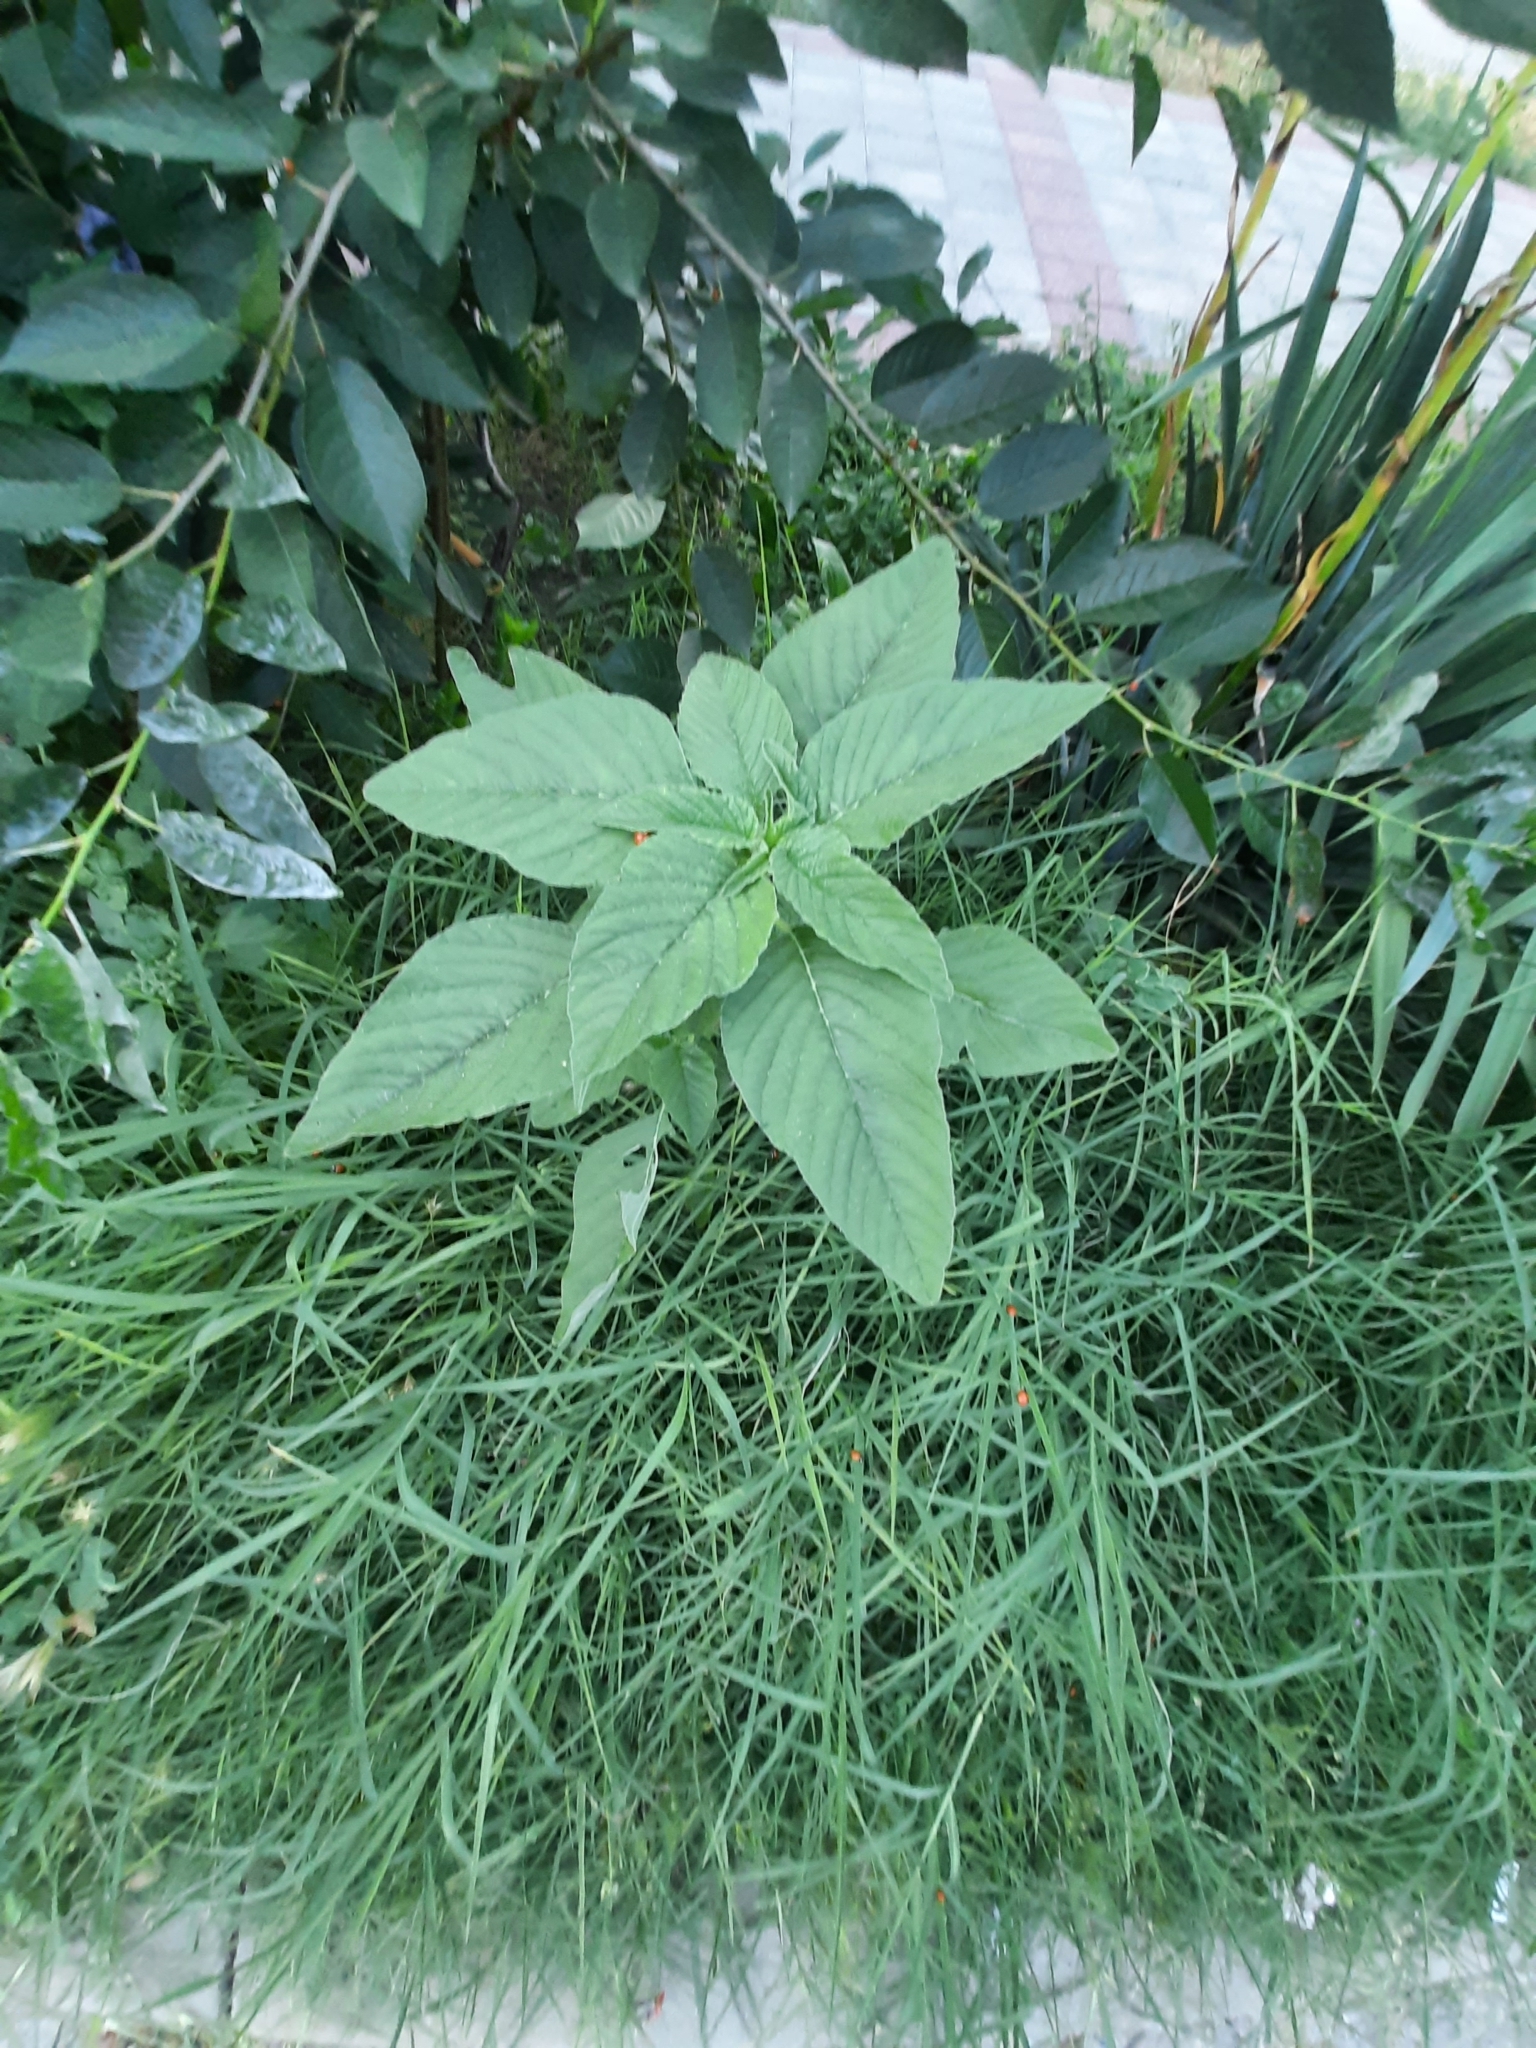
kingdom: Plantae
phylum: Tracheophyta
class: Magnoliopsida
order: Caryophyllales
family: Amaranthaceae
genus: Amaranthus
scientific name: Amaranthus retroflexus
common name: Redroot amaranth
